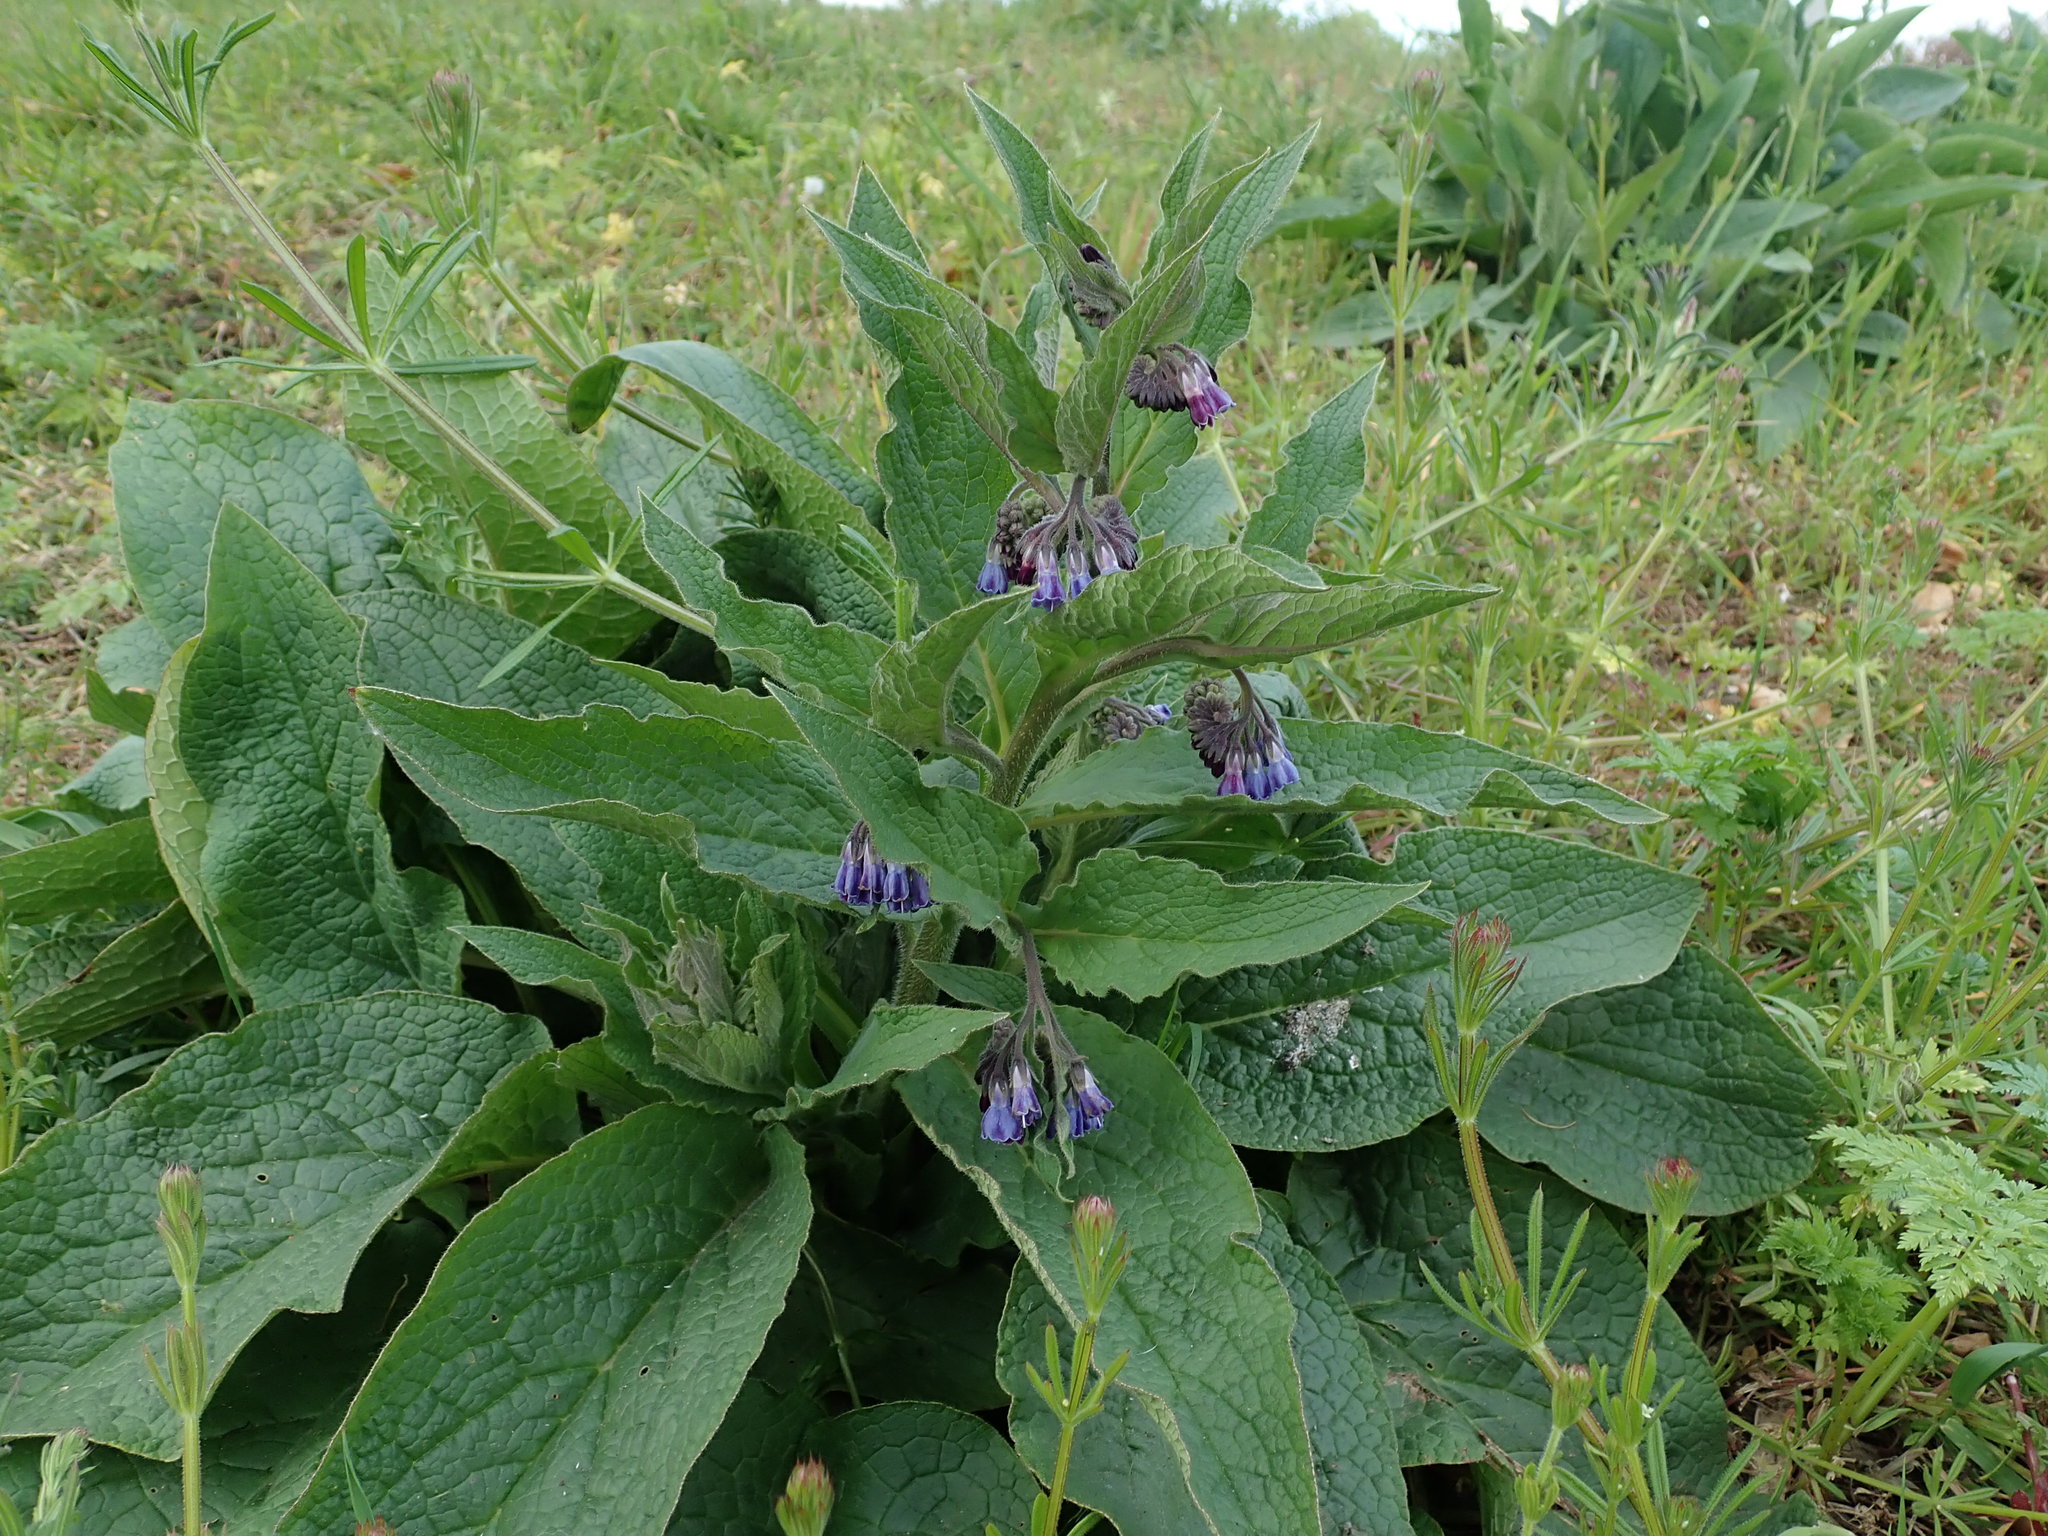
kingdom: Plantae
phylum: Tracheophyta
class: Magnoliopsida
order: Boraginales
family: Boraginaceae
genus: Symphytum
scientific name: Symphytum uplandicum
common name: Russian comfrey
